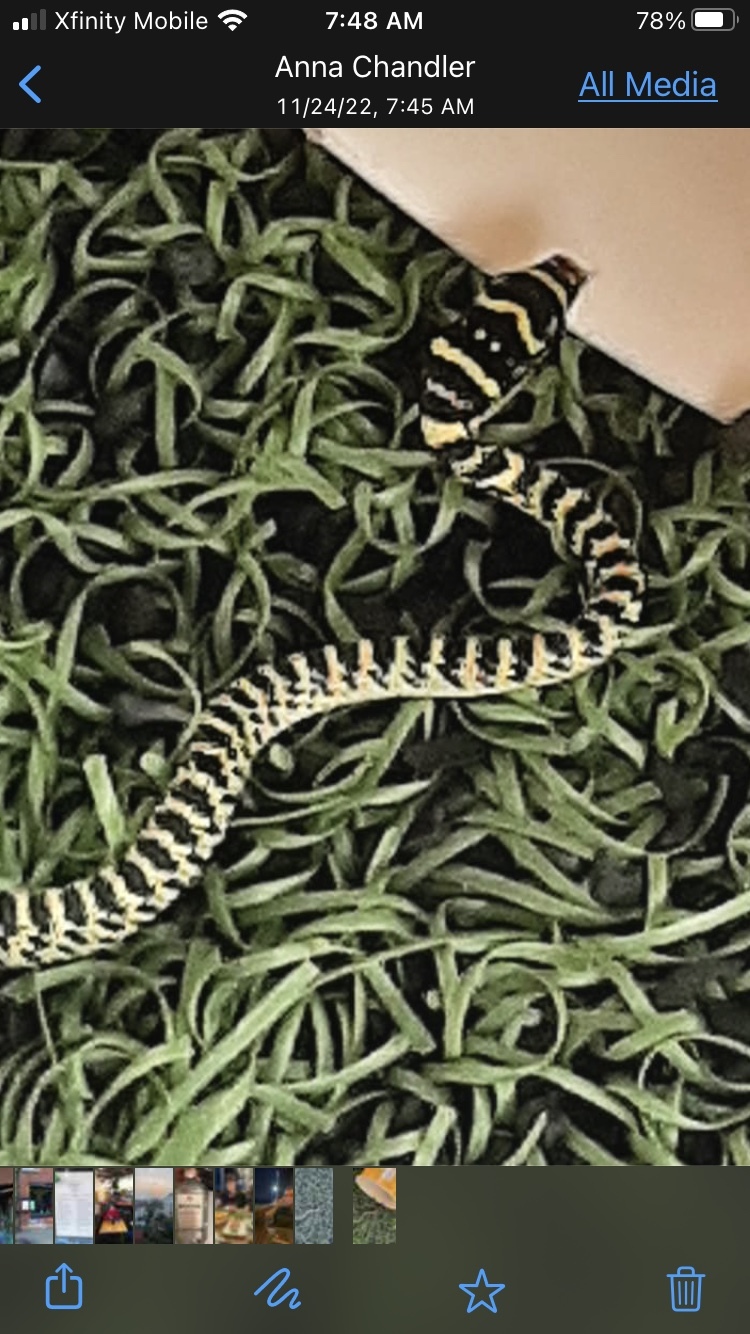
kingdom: Animalia
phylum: Chordata
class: Squamata
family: Colubridae
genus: Chrysopelea
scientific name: Chrysopelea ornata
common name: Golden flying snake
